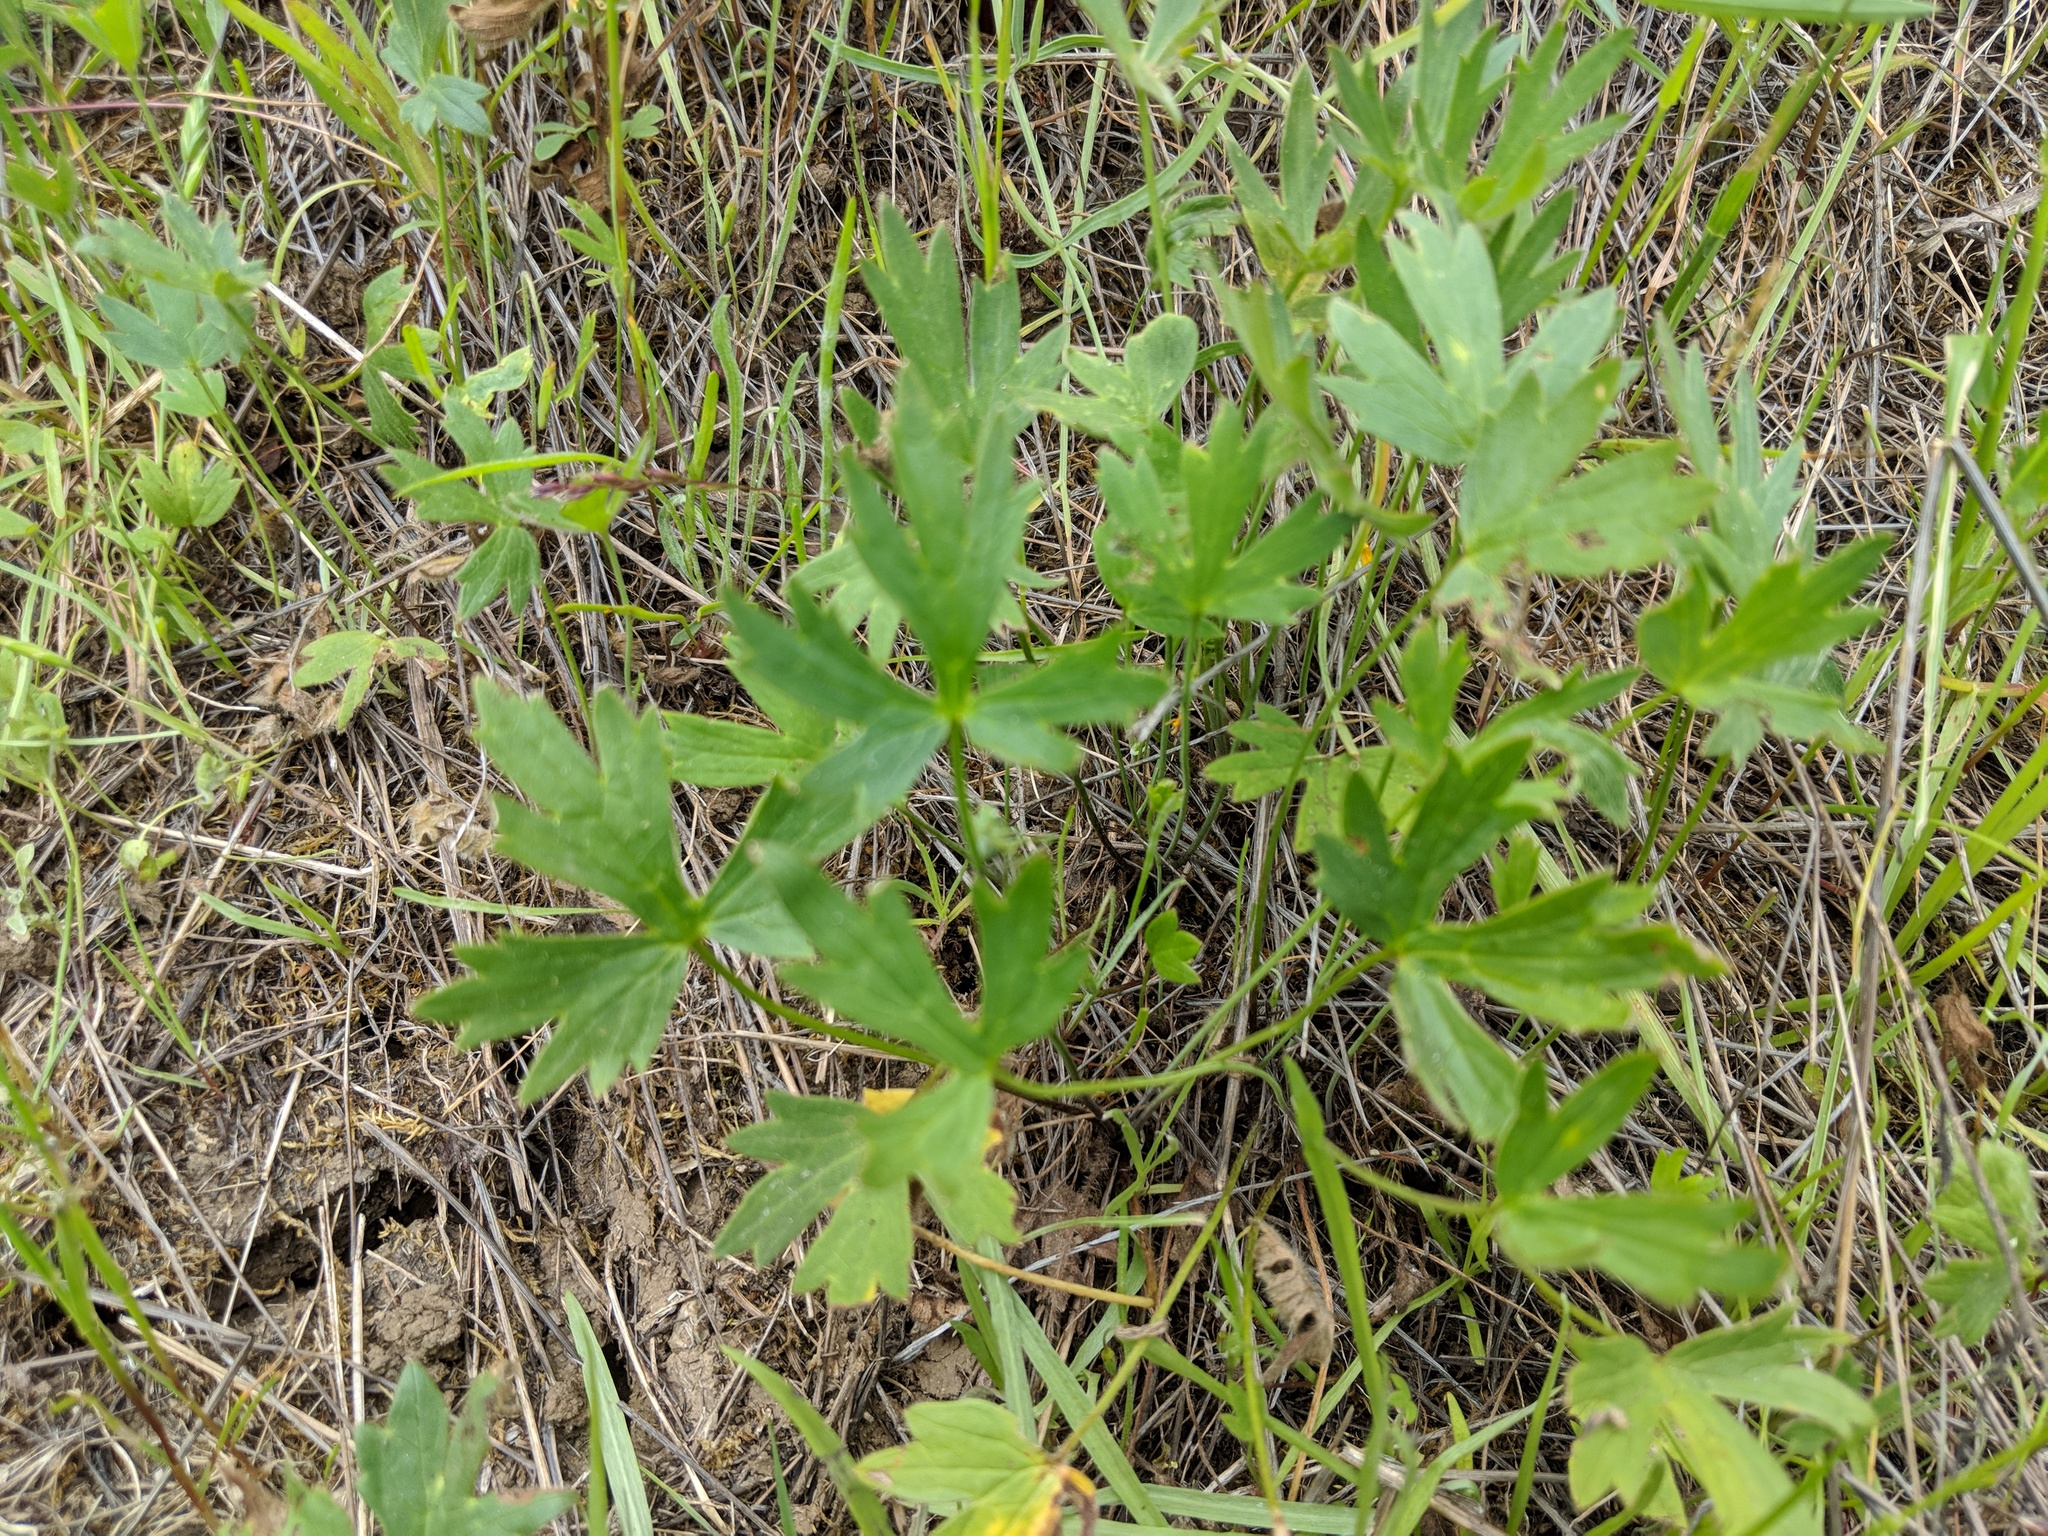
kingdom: Plantae
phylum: Tracheophyta
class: Magnoliopsida
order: Ranunculales
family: Ranunculaceae
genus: Ranunculus
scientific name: Ranunculus californicus
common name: California buttercup
